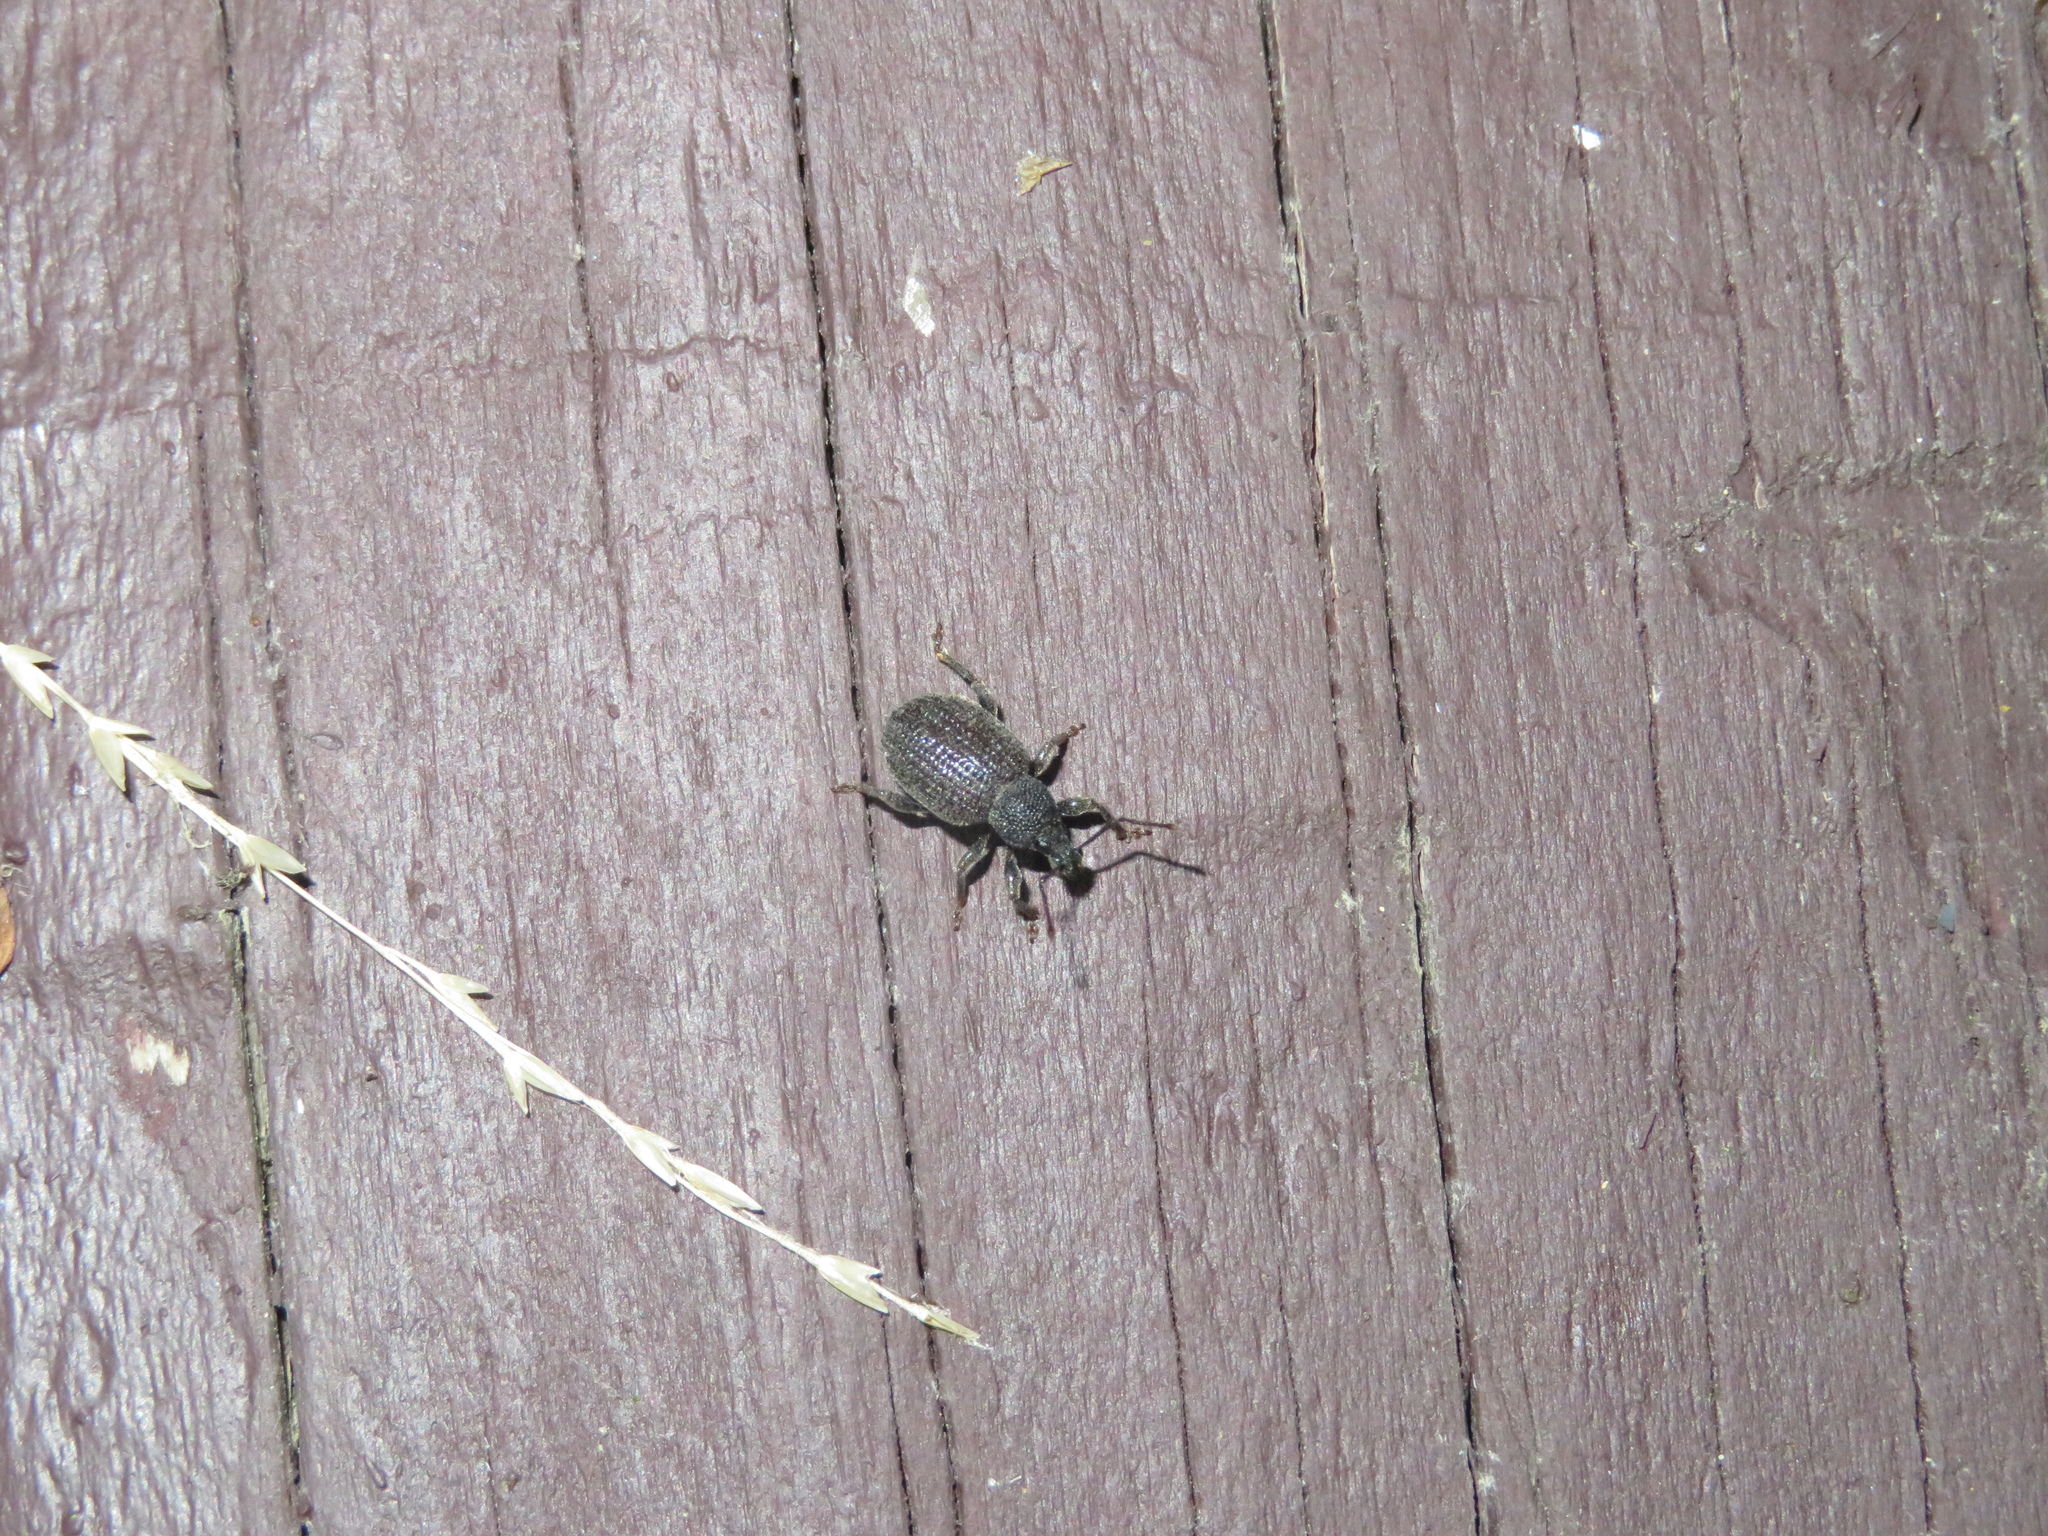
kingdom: Animalia
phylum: Arthropoda
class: Insecta
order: Coleoptera
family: Curculionidae
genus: Otiorhynchus
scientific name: Otiorhynchus rugosostriatus
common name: Weevil
